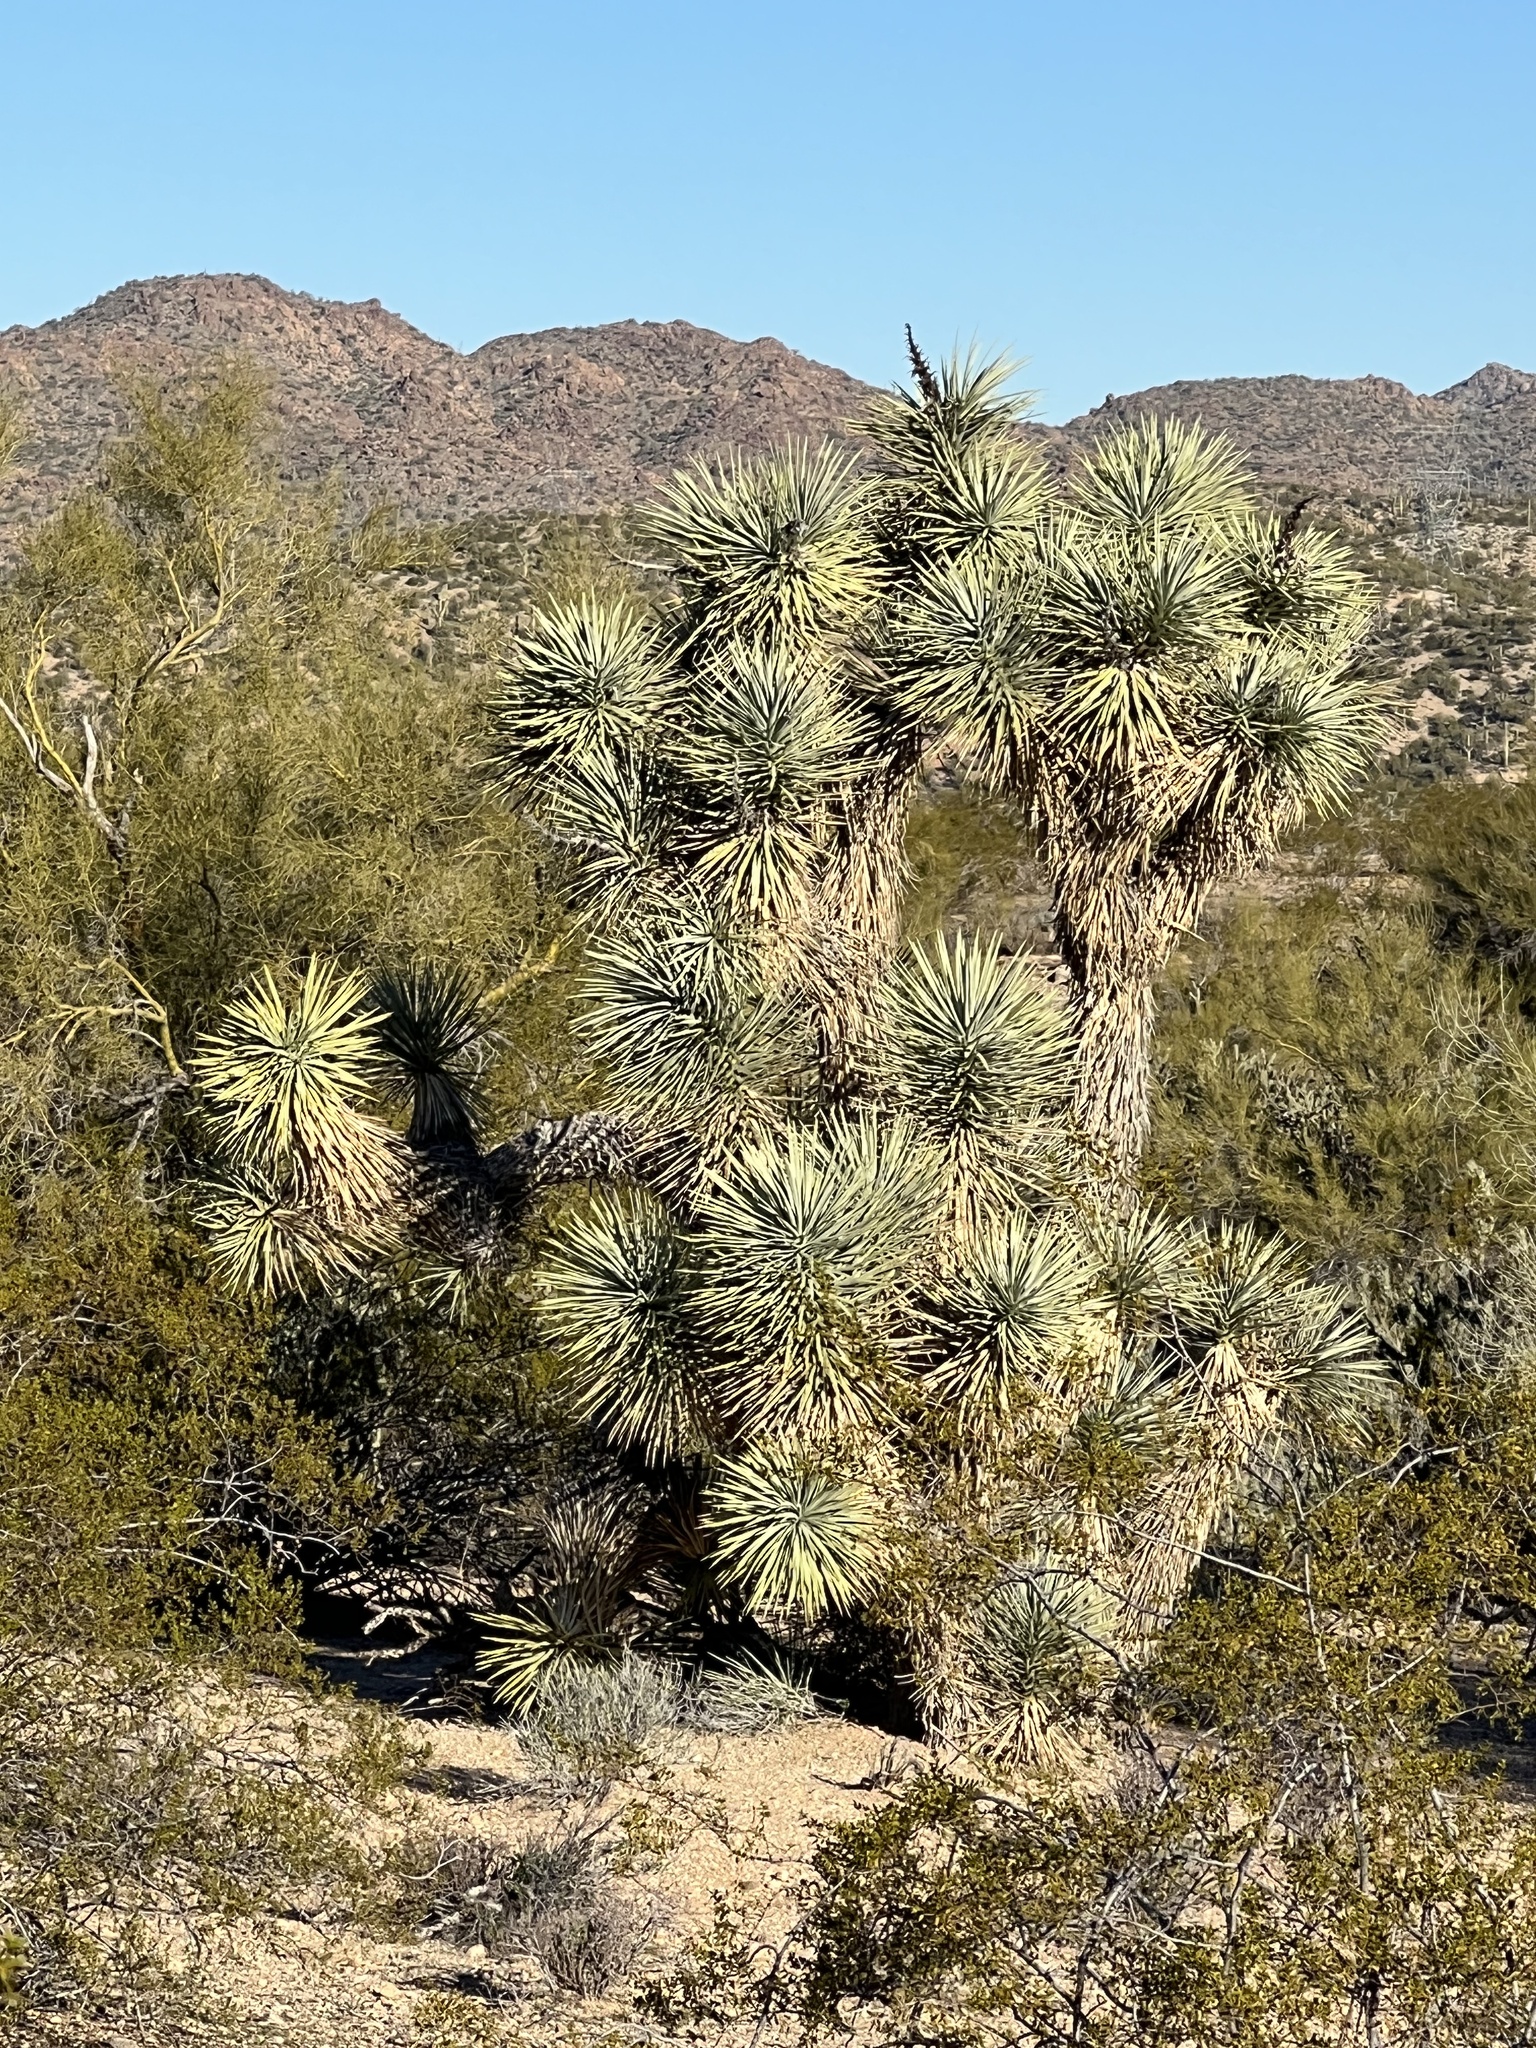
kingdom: Plantae
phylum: Tracheophyta
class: Liliopsida
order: Asparagales
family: Asparagaceae
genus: Yucca
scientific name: Yucca brevifolia
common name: Joshua tree
